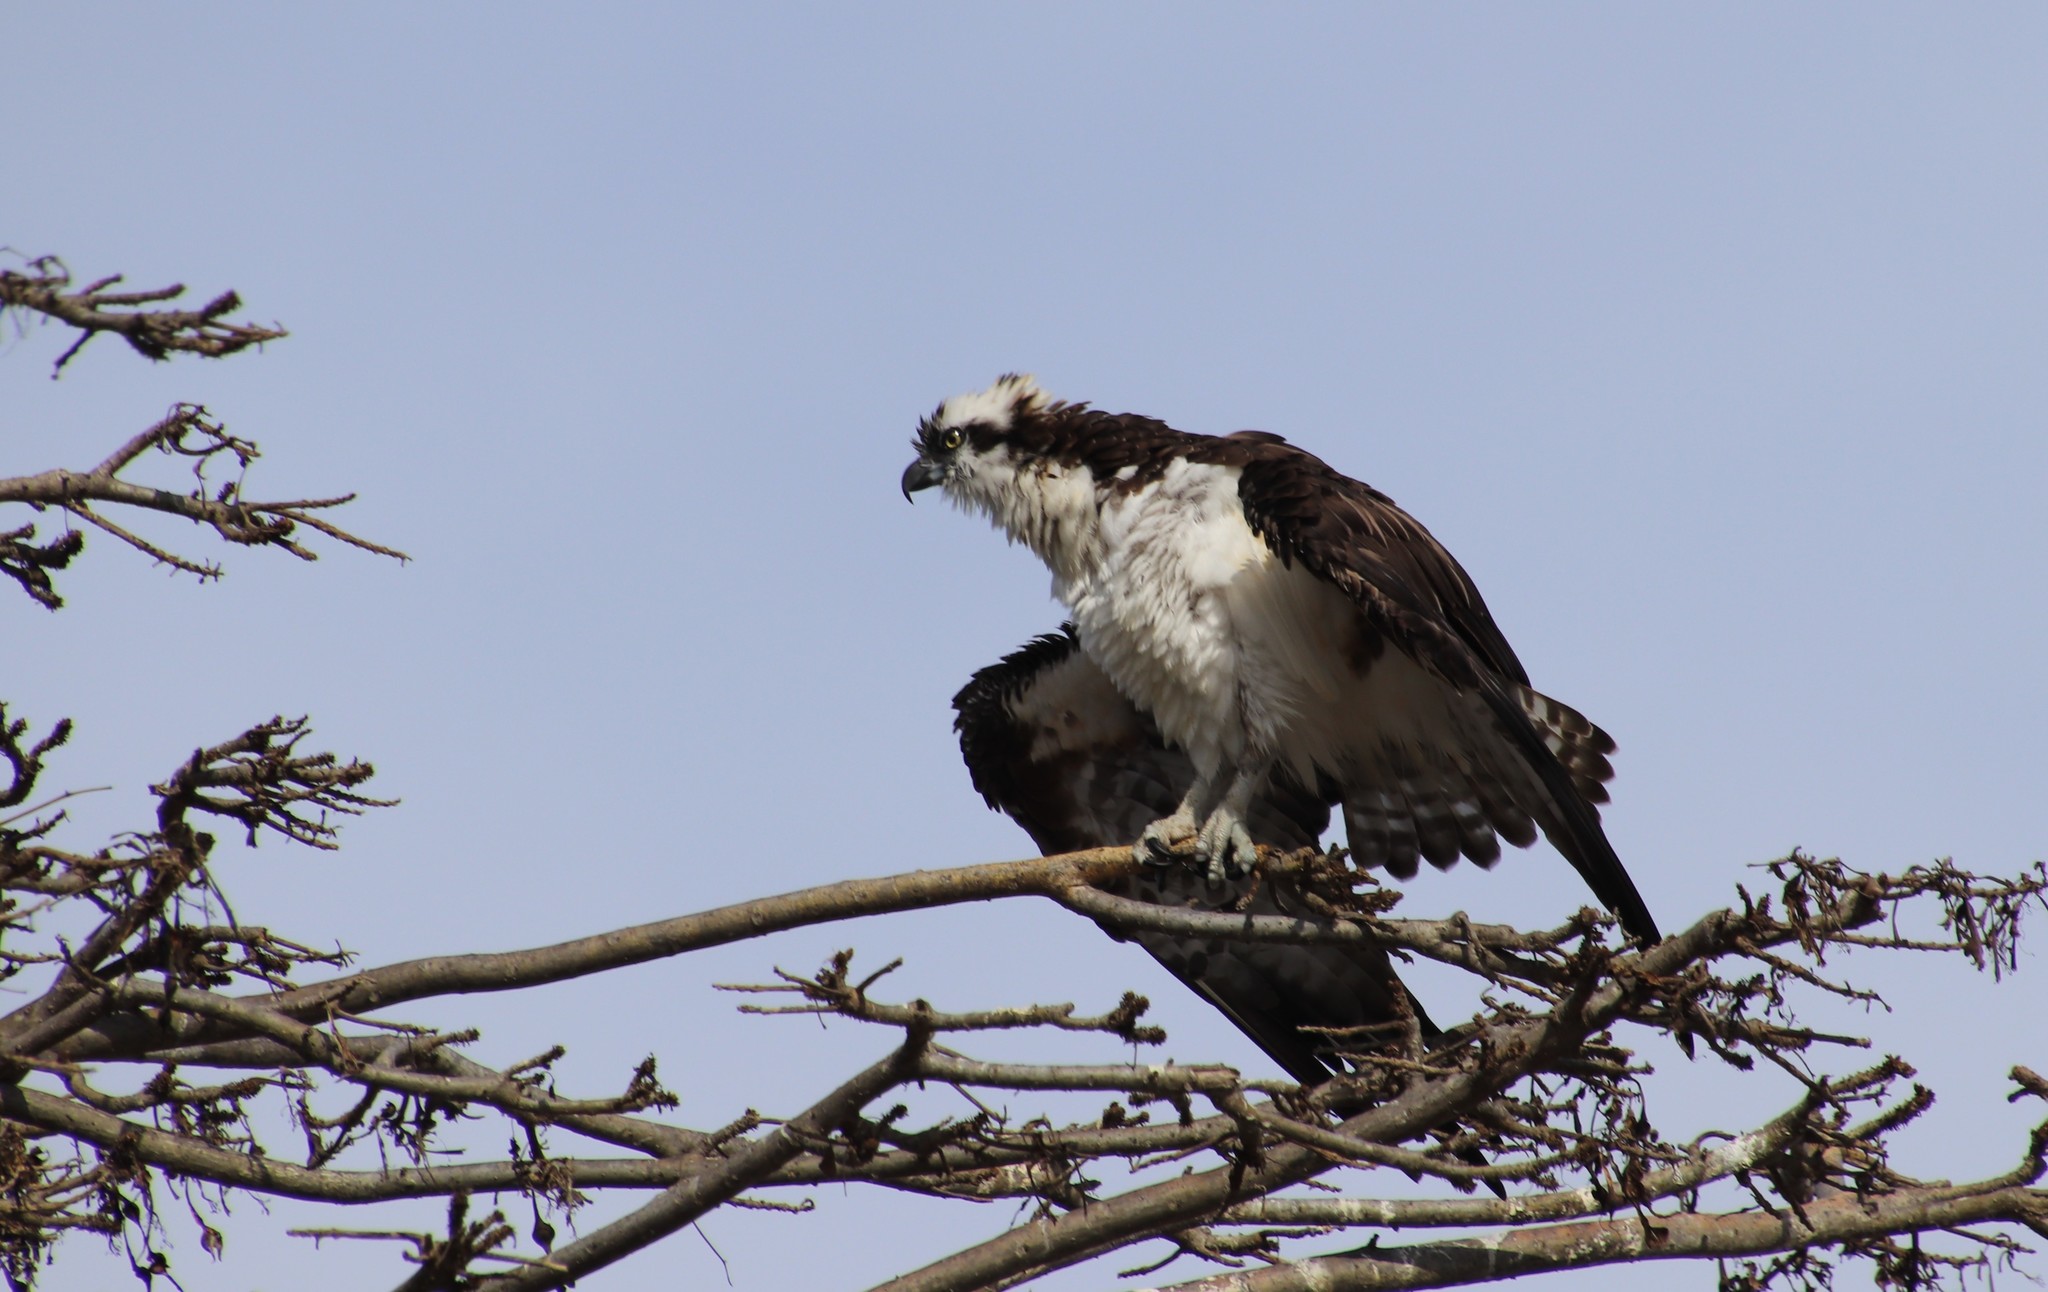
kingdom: Animalia
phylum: Chordata
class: Aves
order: Accipitriformes
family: Pandionidae
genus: Pandion
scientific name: Pandion haliaetus
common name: Osprey
